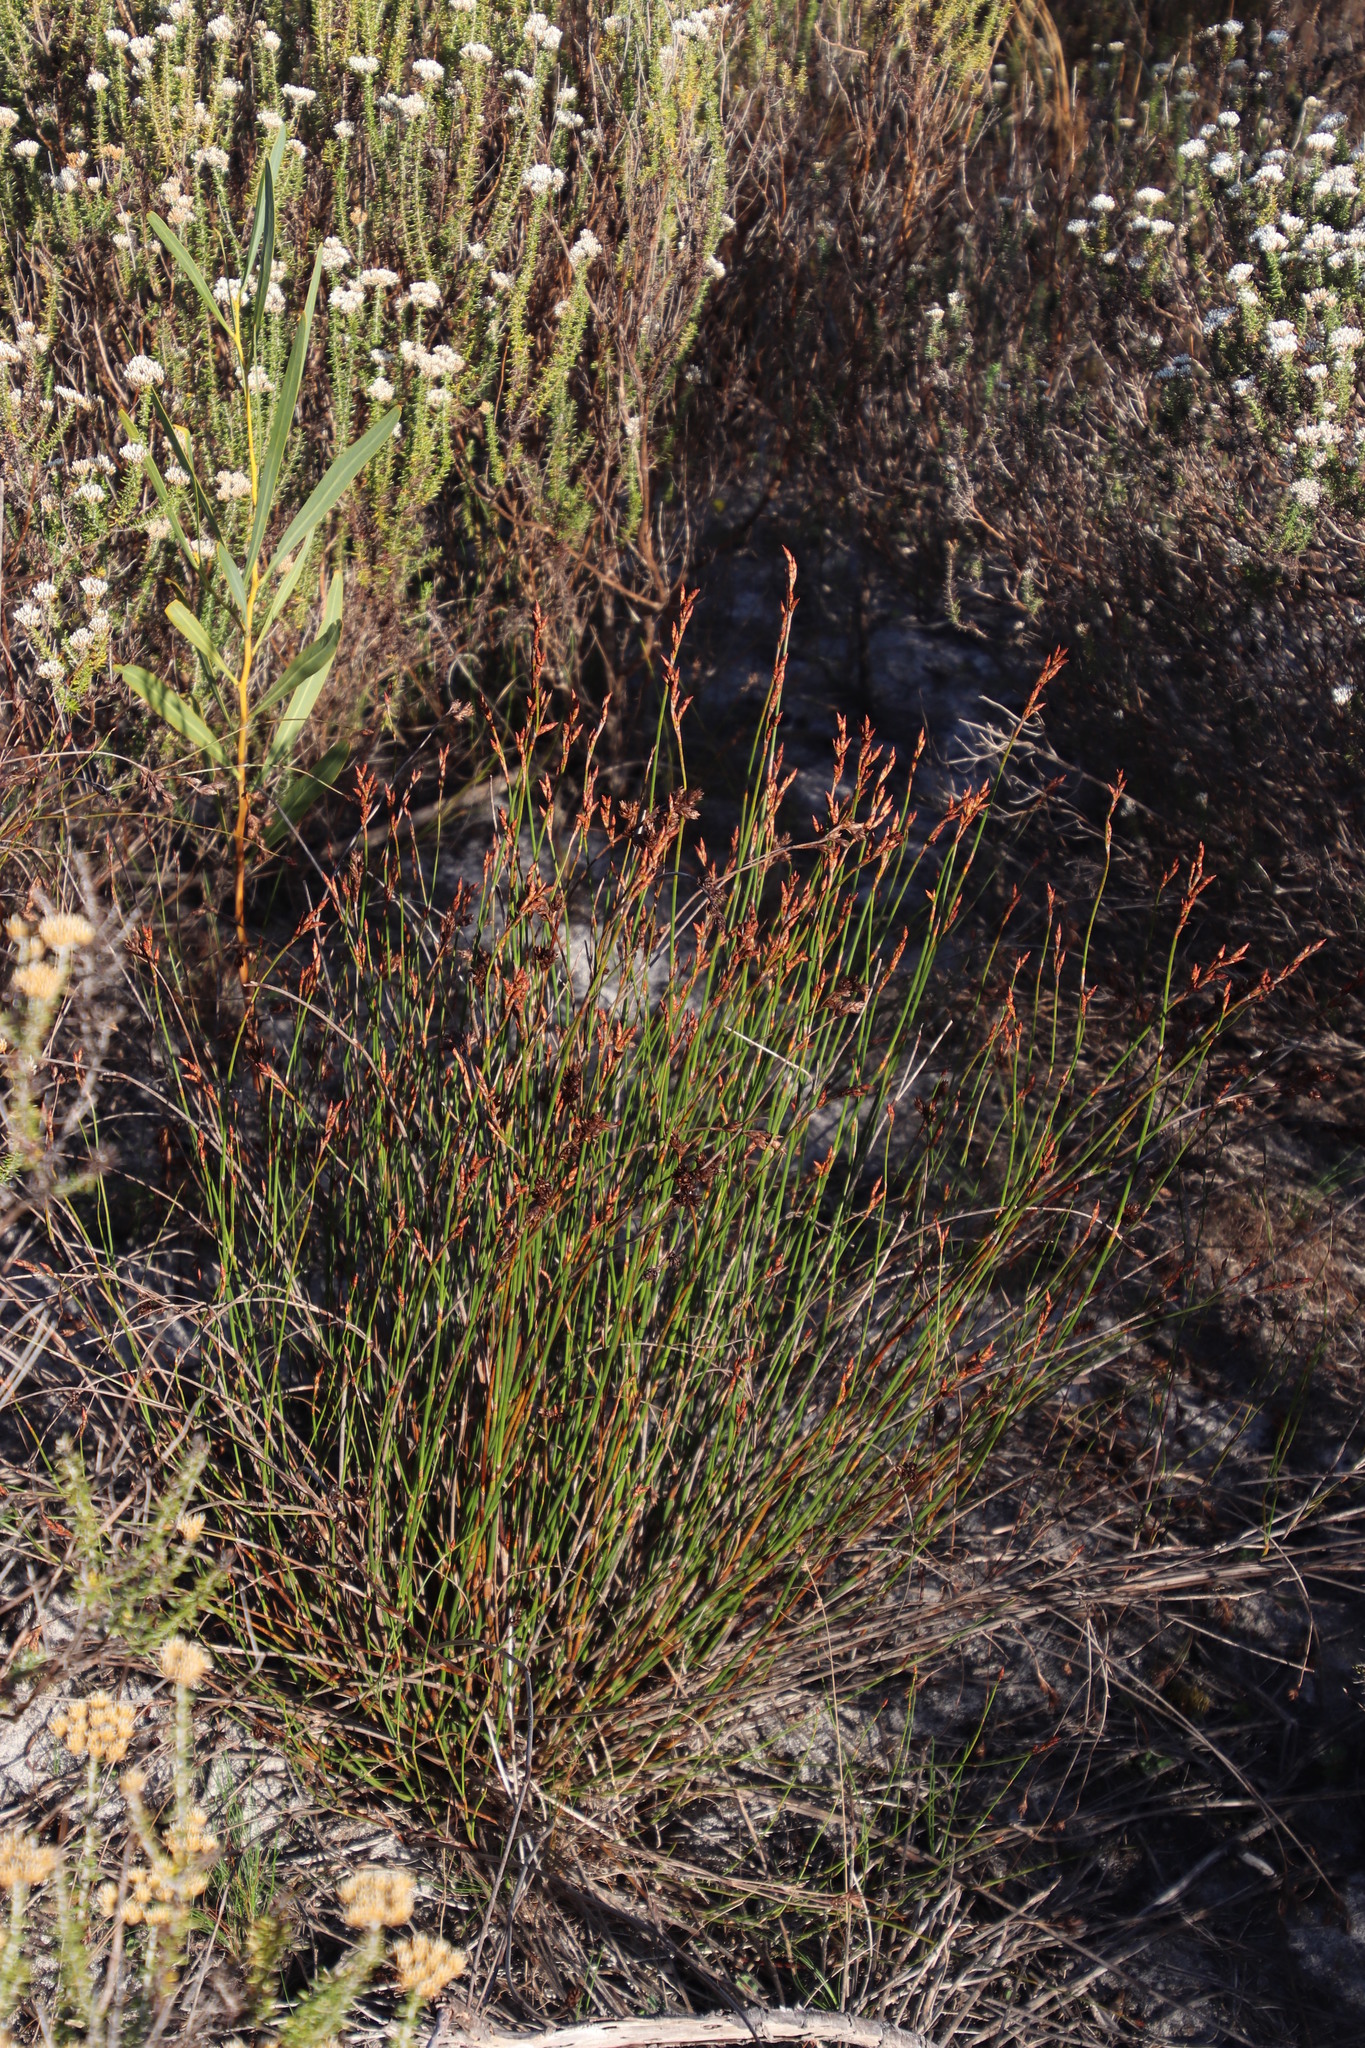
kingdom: Plantae
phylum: Tracheophyta
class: Liliopsida
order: Poales
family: Restionaceae
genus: Restio
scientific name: Restio bifurcus
